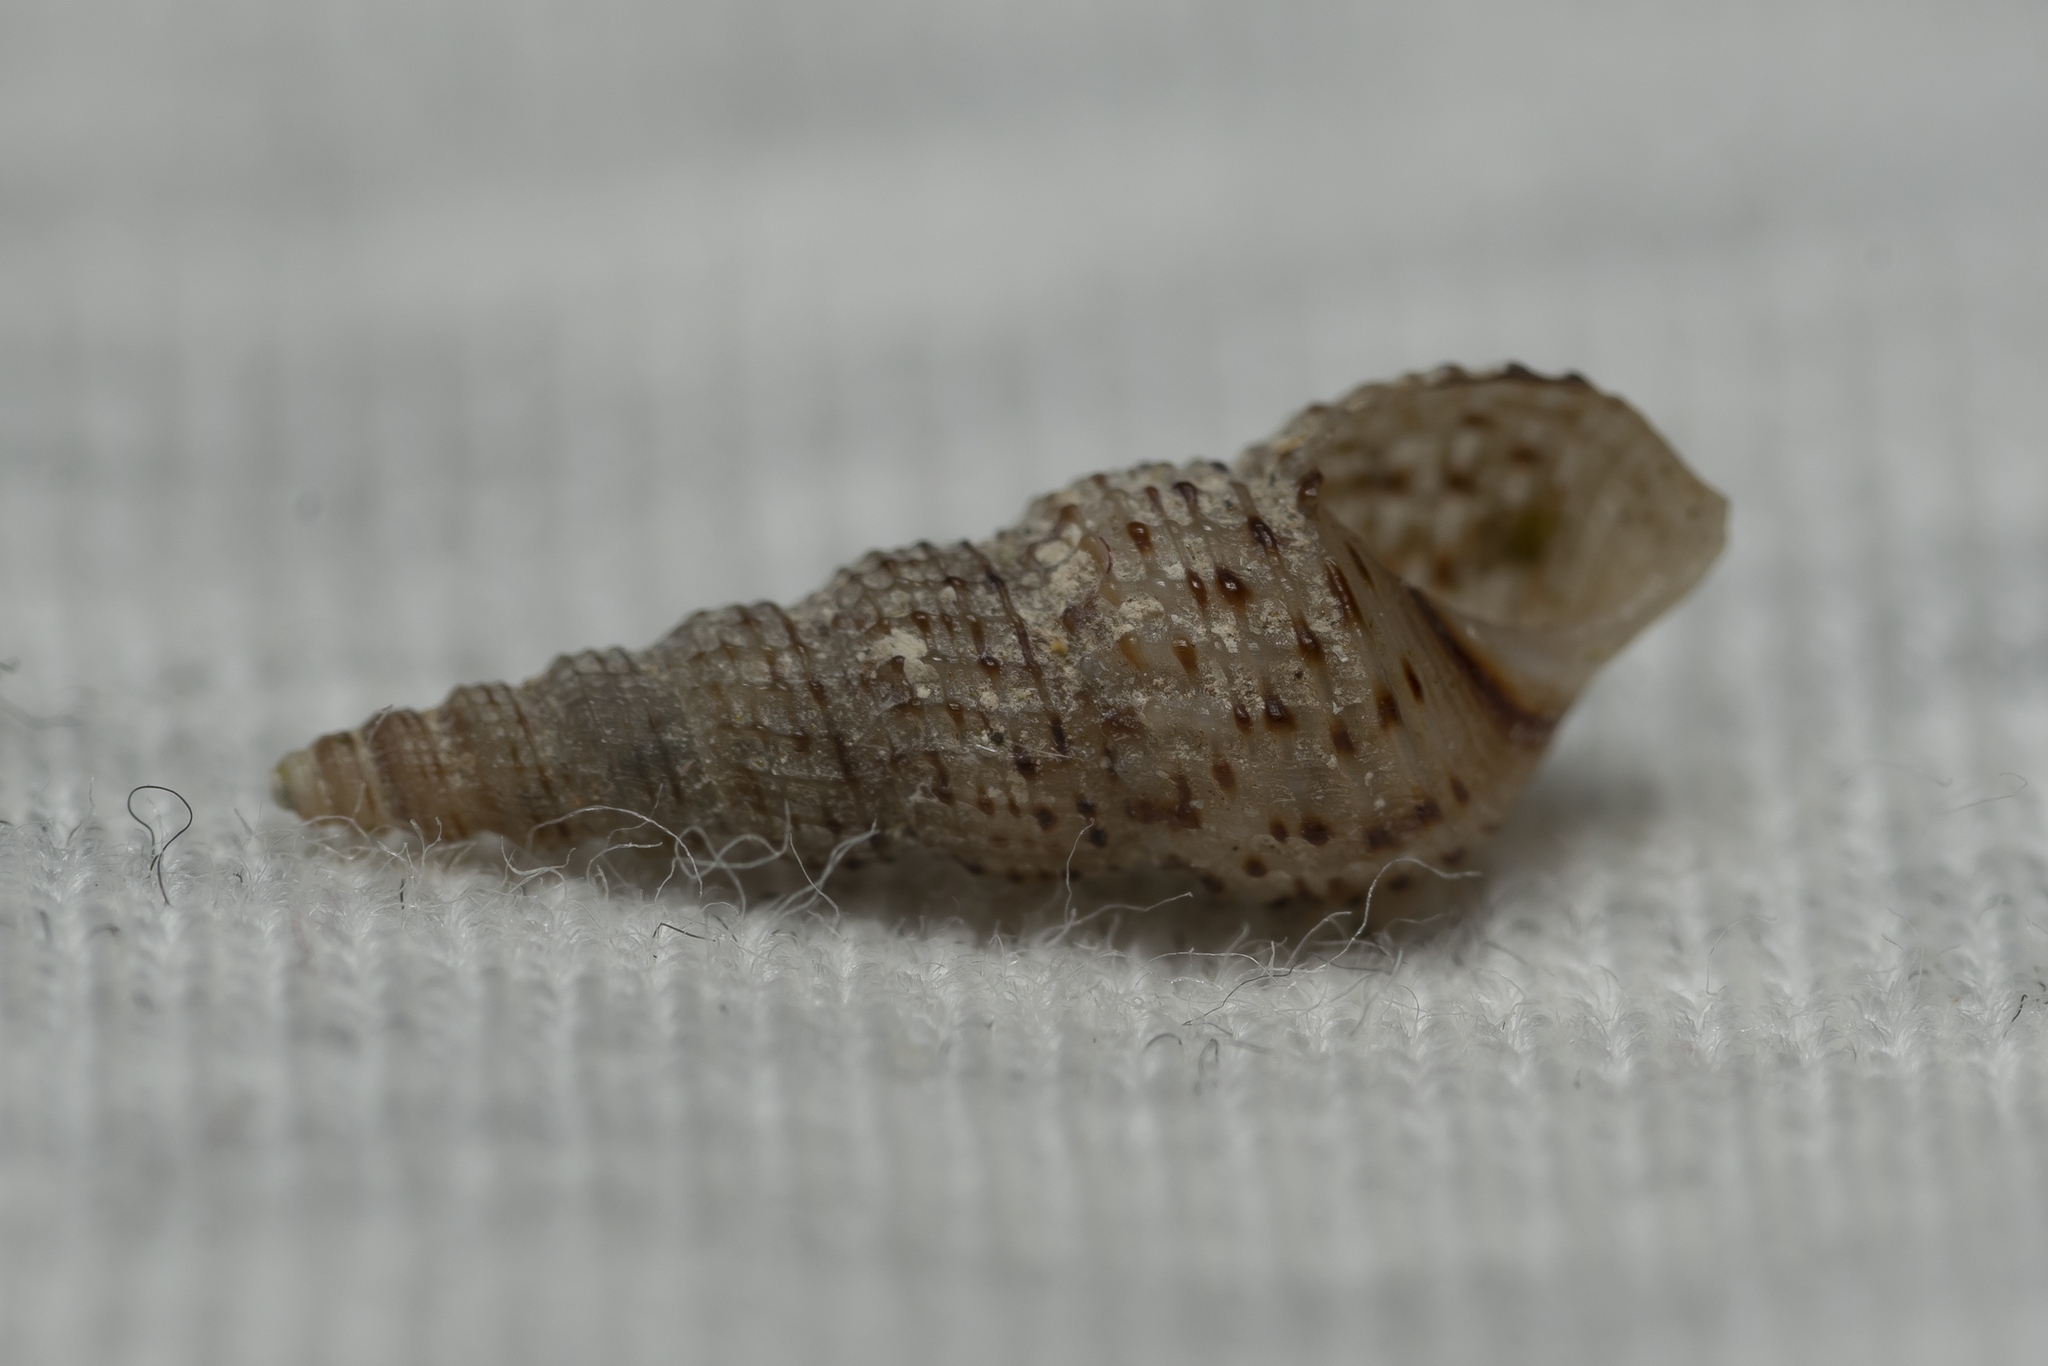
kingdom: Animalia
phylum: Mollusca
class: Gastropoda
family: Thiaridae
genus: Melanoides
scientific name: Melanoides tuberculata
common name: Red-rim melania
